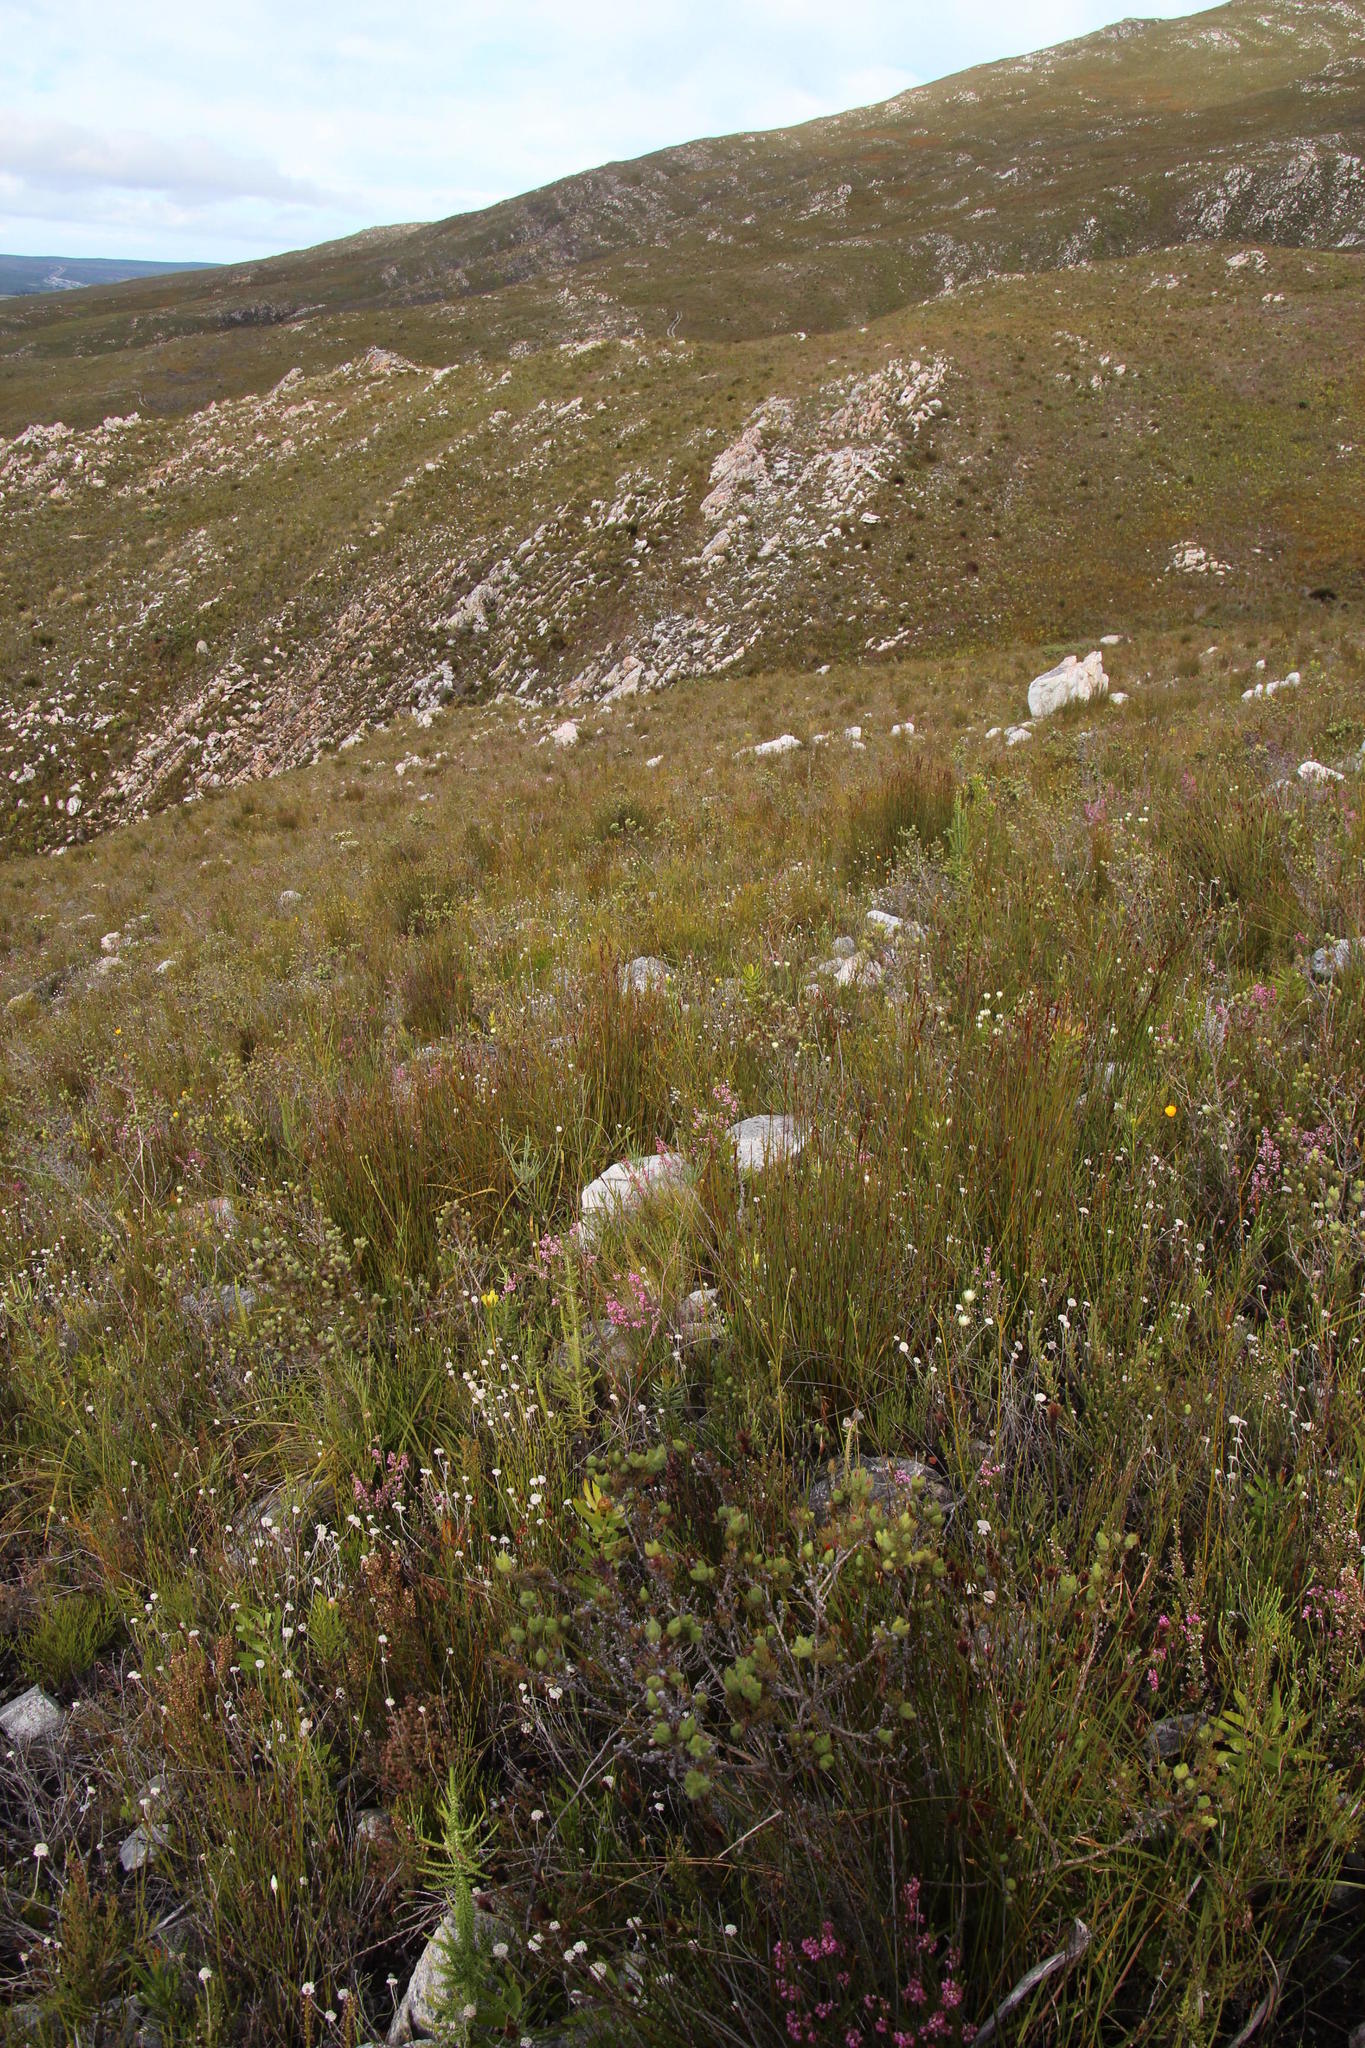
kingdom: Plantae
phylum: Tracheophyta
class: Liliopsida
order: Poales
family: Restionaceae
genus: Hypodiscus
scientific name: Hypodiscus argenteus
